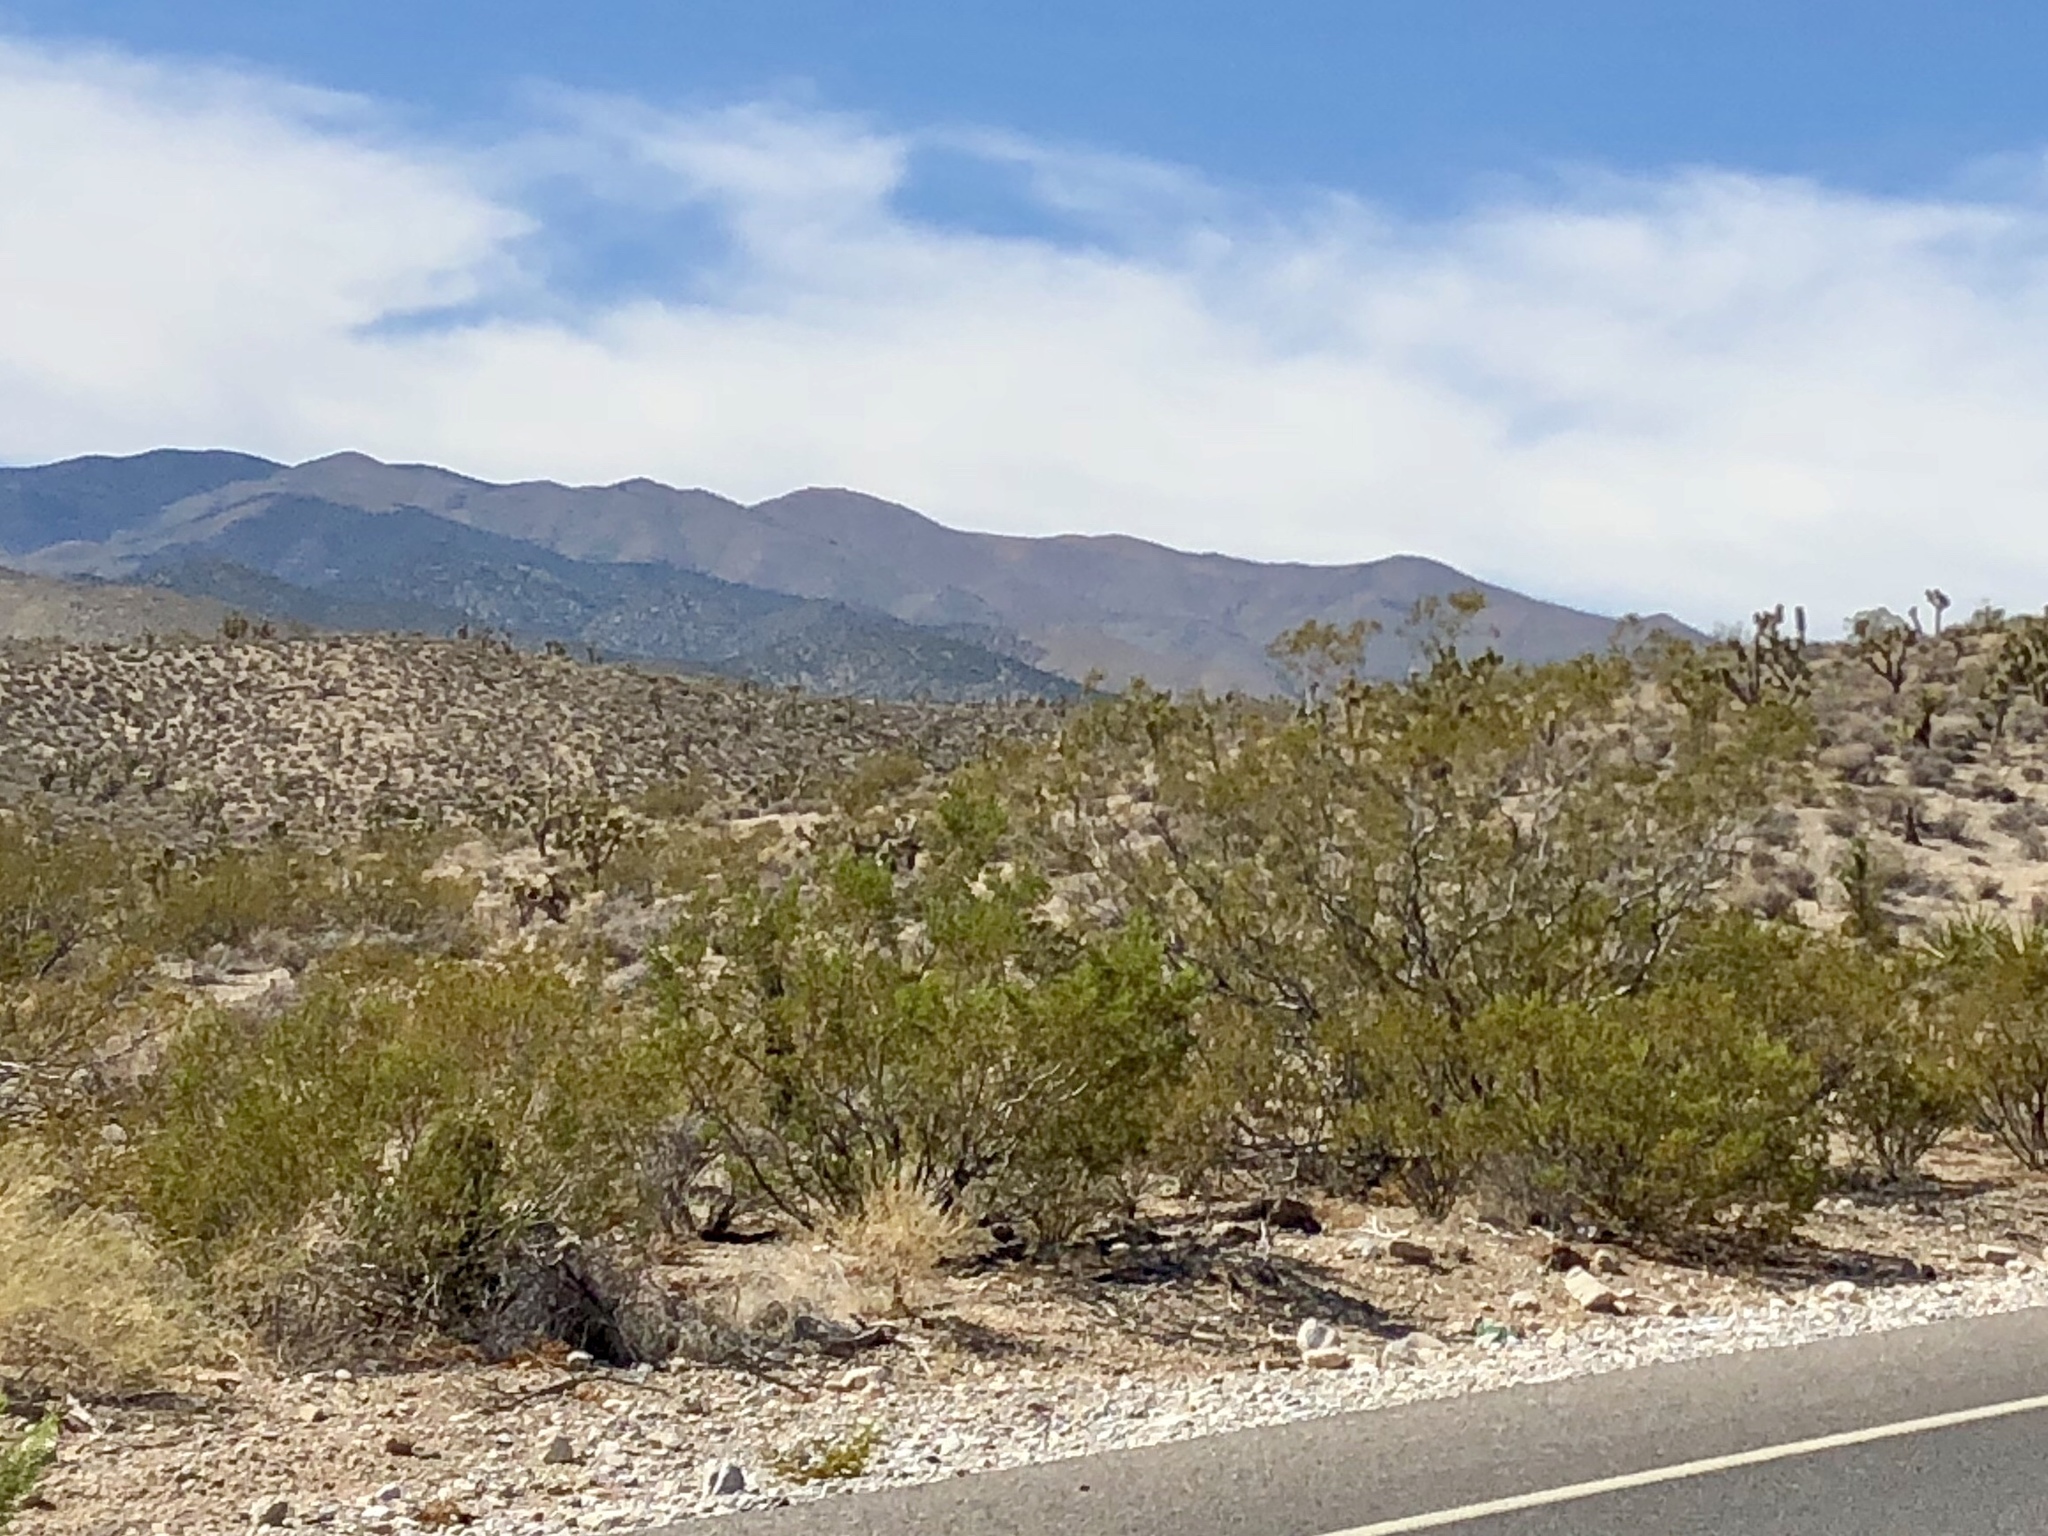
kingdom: Plantae
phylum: Tracheophyta
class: Magnoliopsida
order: Zygophyllales
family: Zygophyllaceae
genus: Larrea
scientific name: Larrea tridentata
